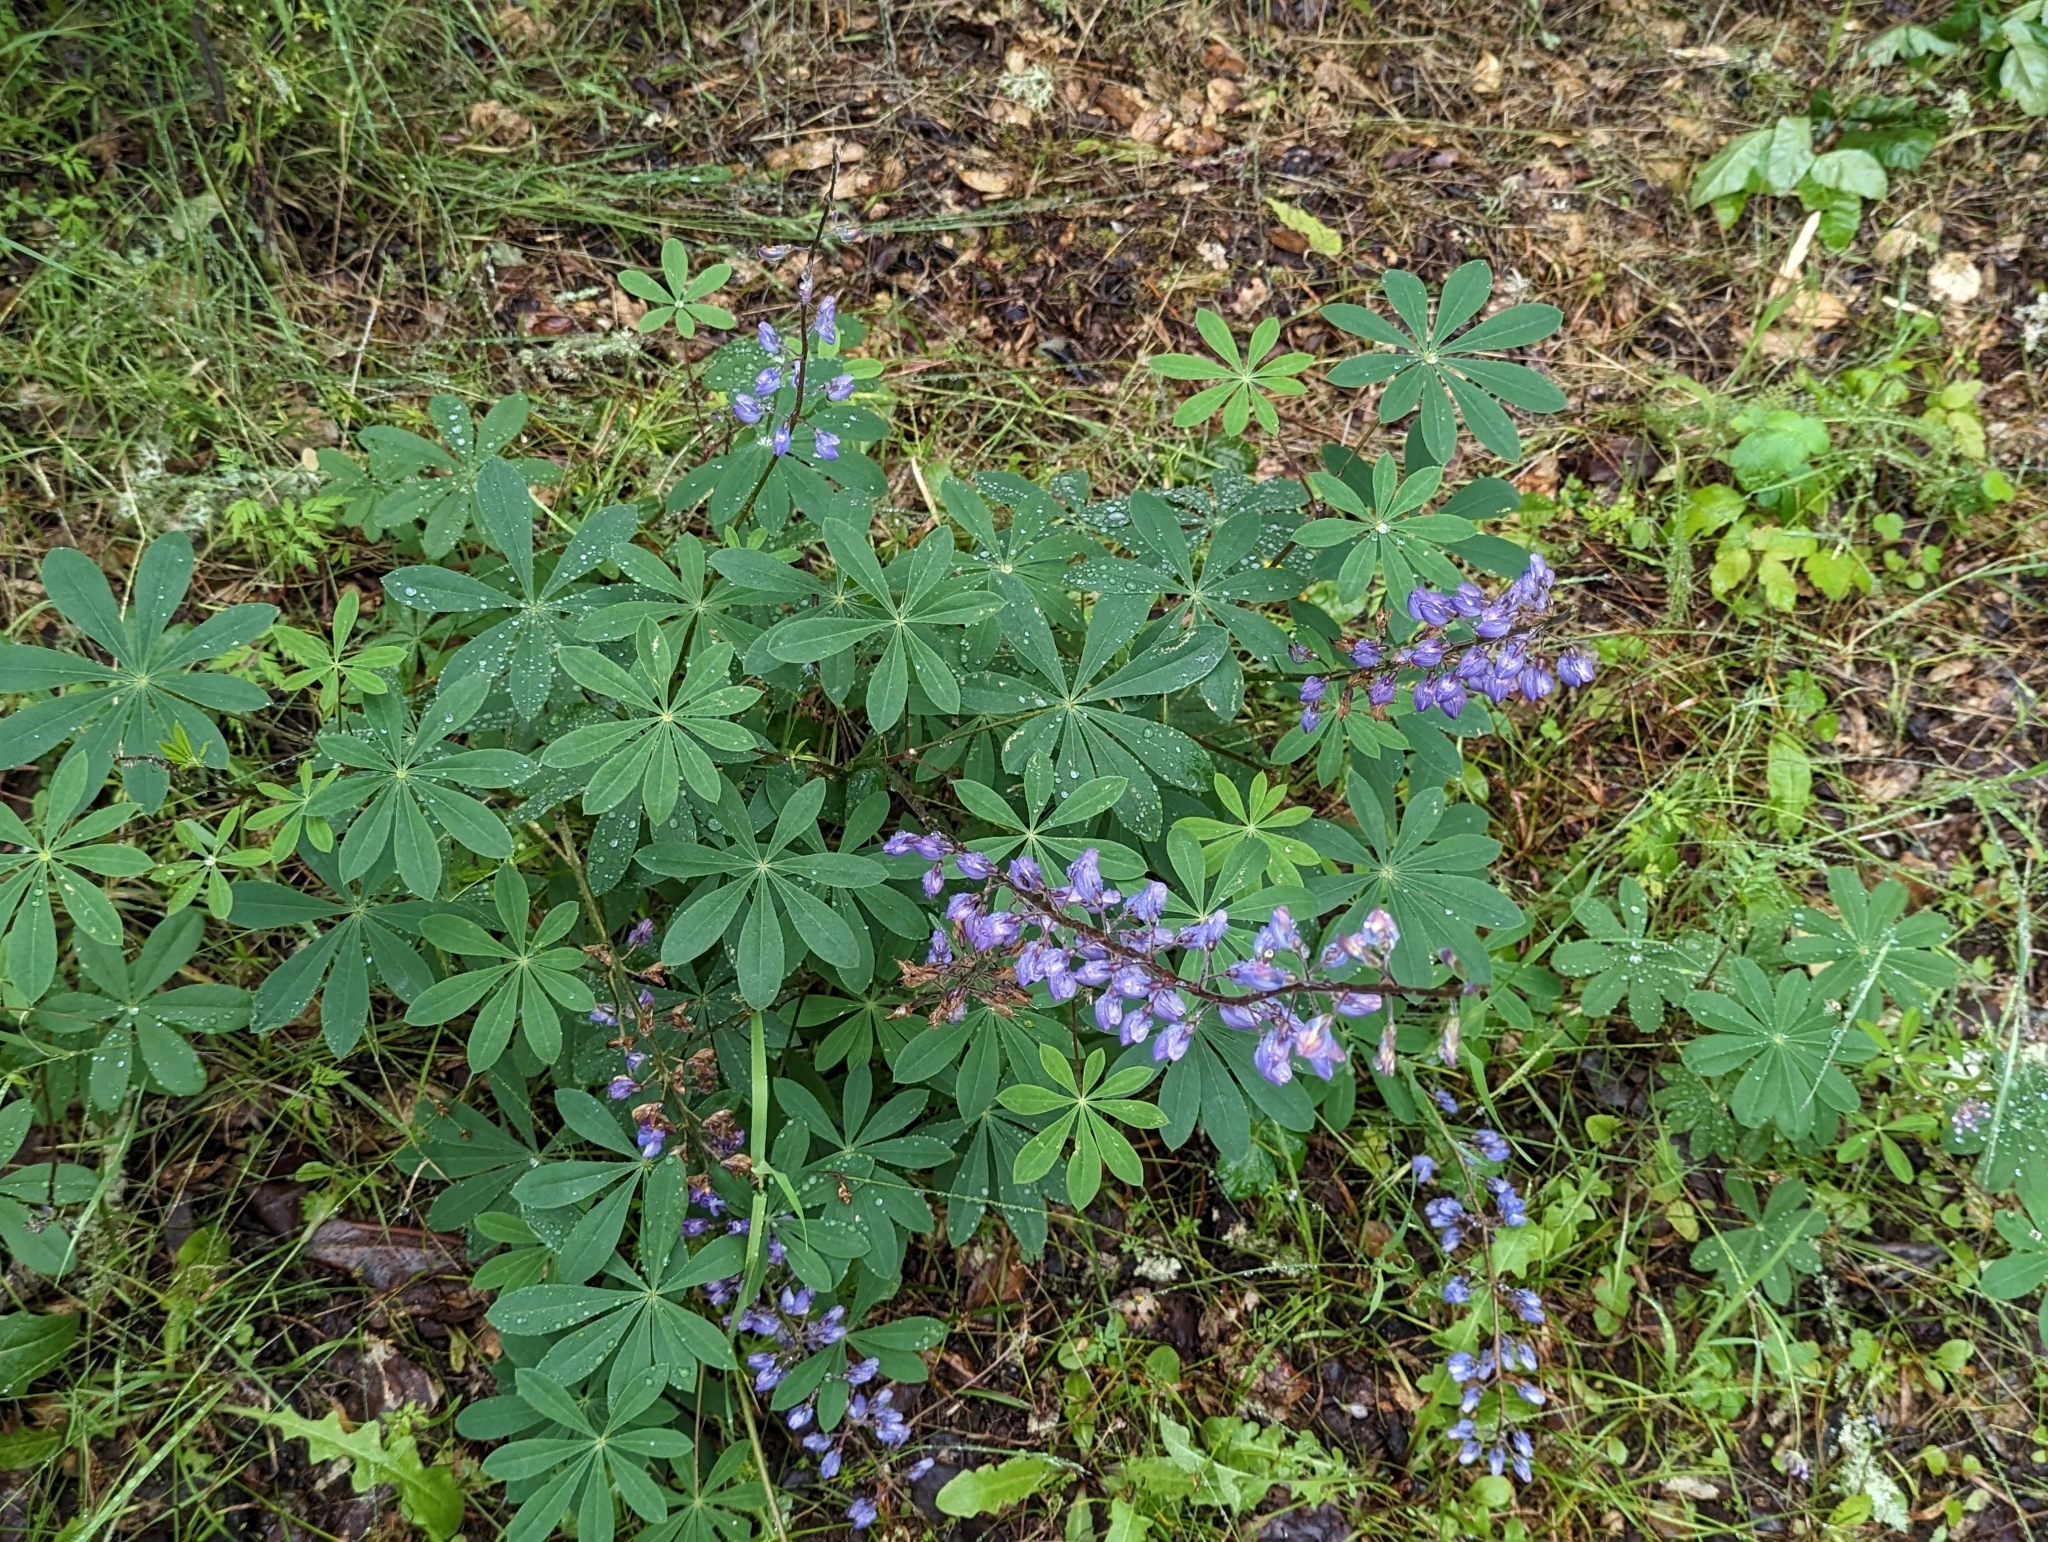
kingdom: Plantae
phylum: Tracheophyta
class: Magnoliopsida
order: Fabales
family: Fabaceae
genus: Lupinus
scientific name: Lupinus latifolius
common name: Broad-leaved lupine
